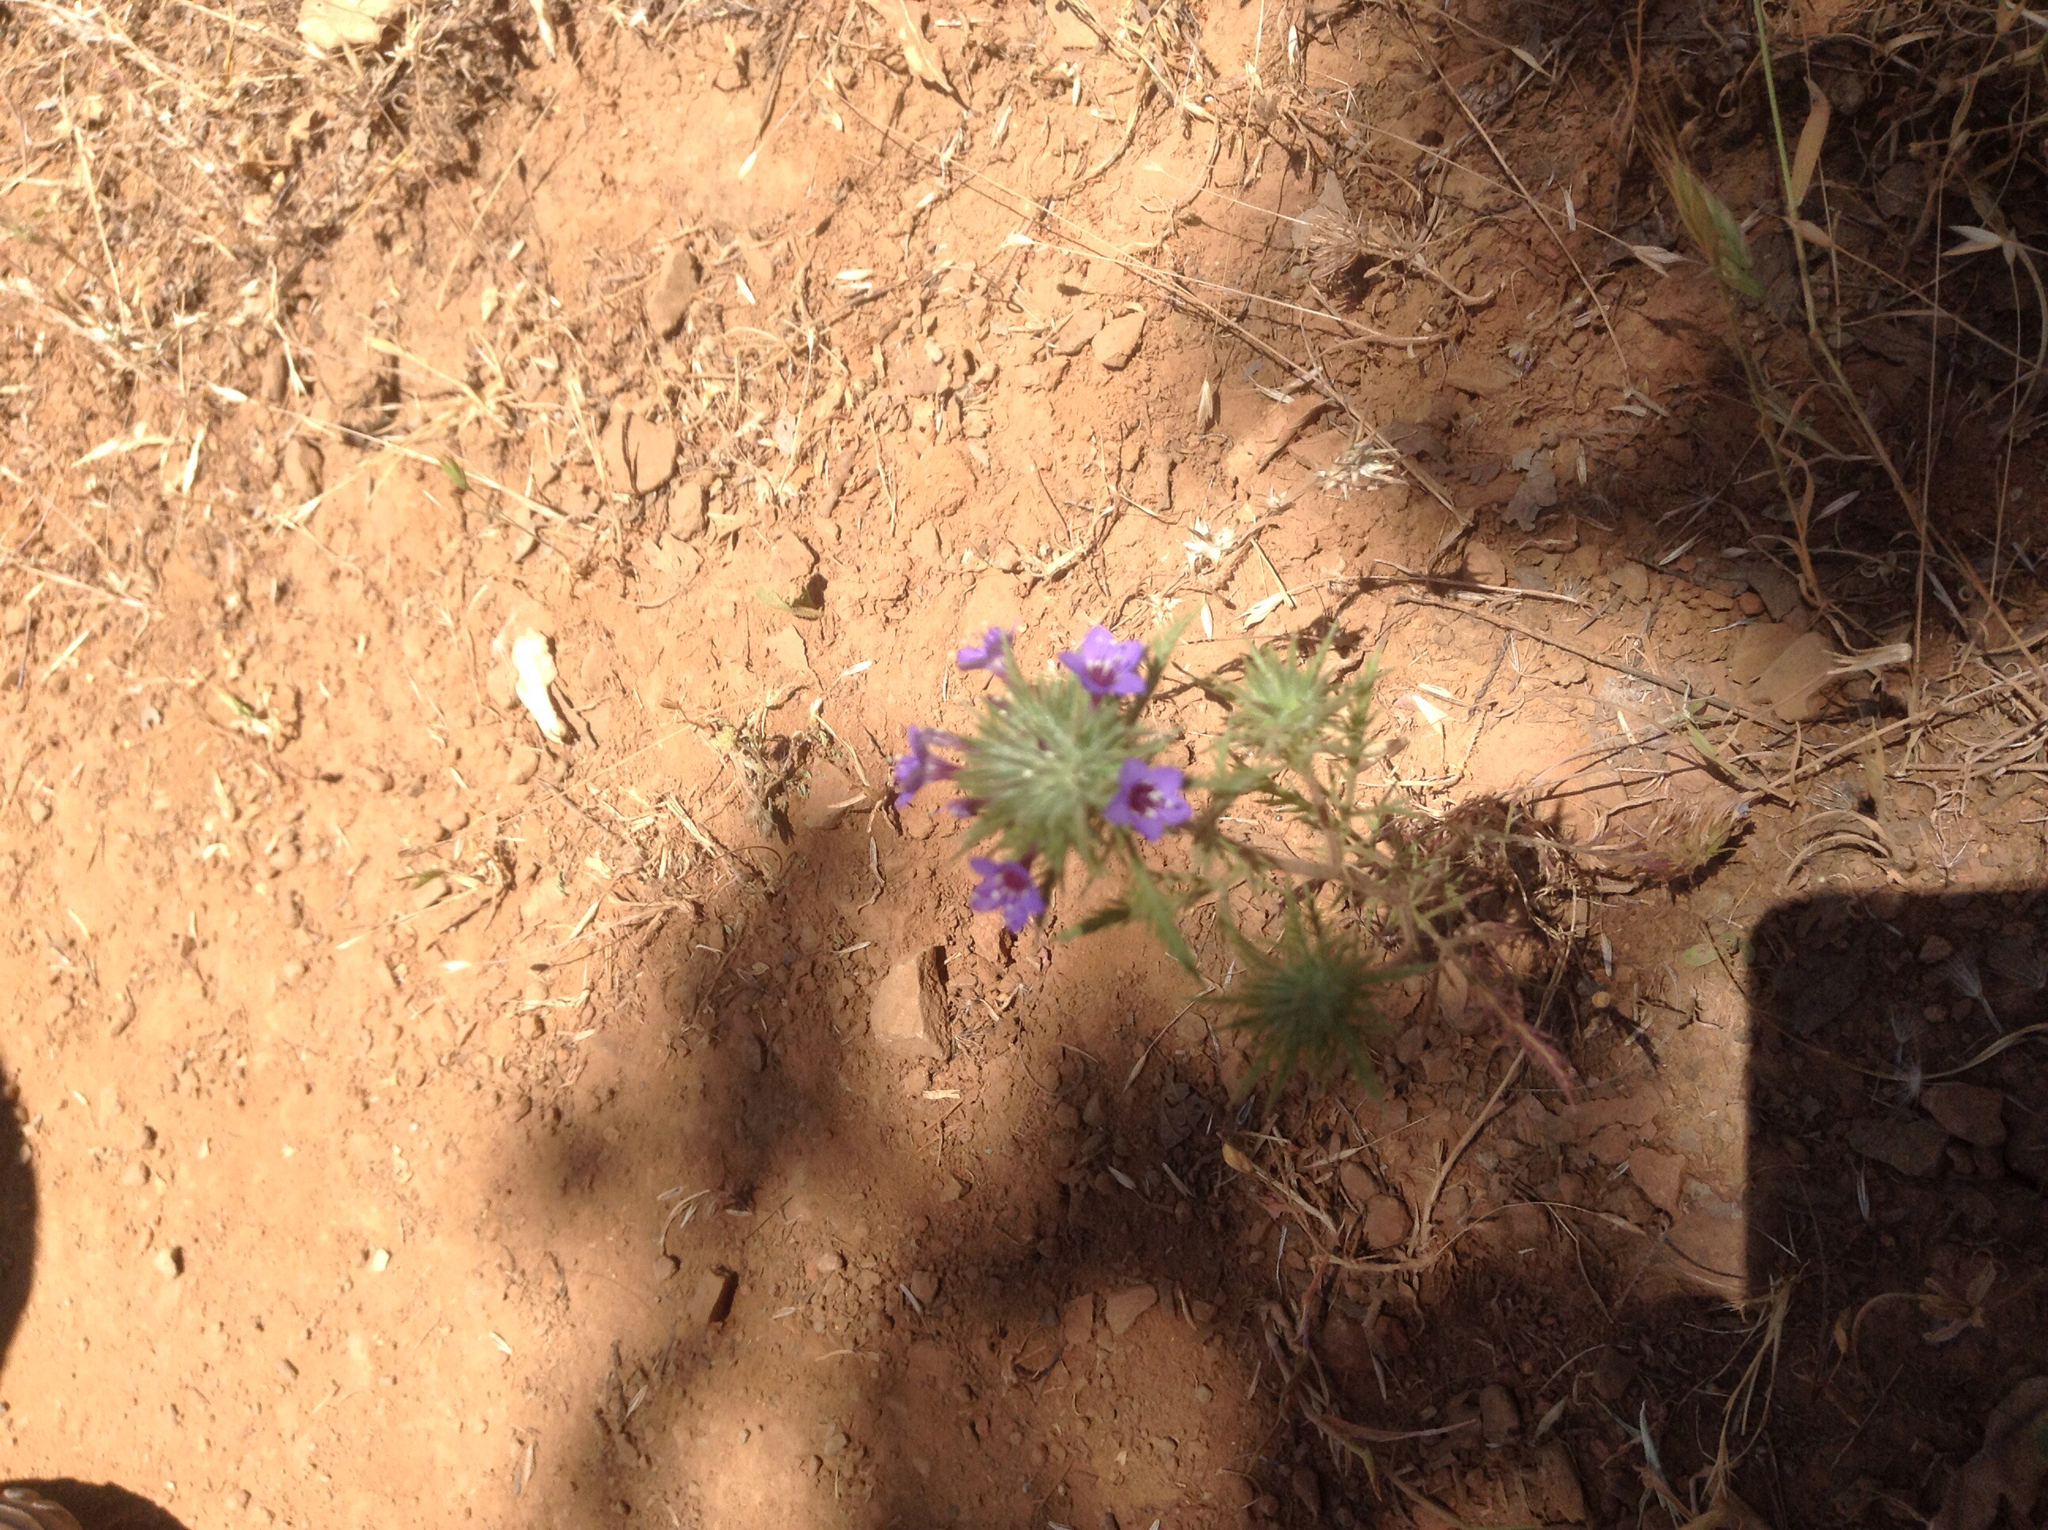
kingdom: Plantae
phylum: Tracheophyta
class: Magnoliopsida
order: Ericales
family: Polemoniaceae
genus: Navarretia
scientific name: Navarretia pubescens
